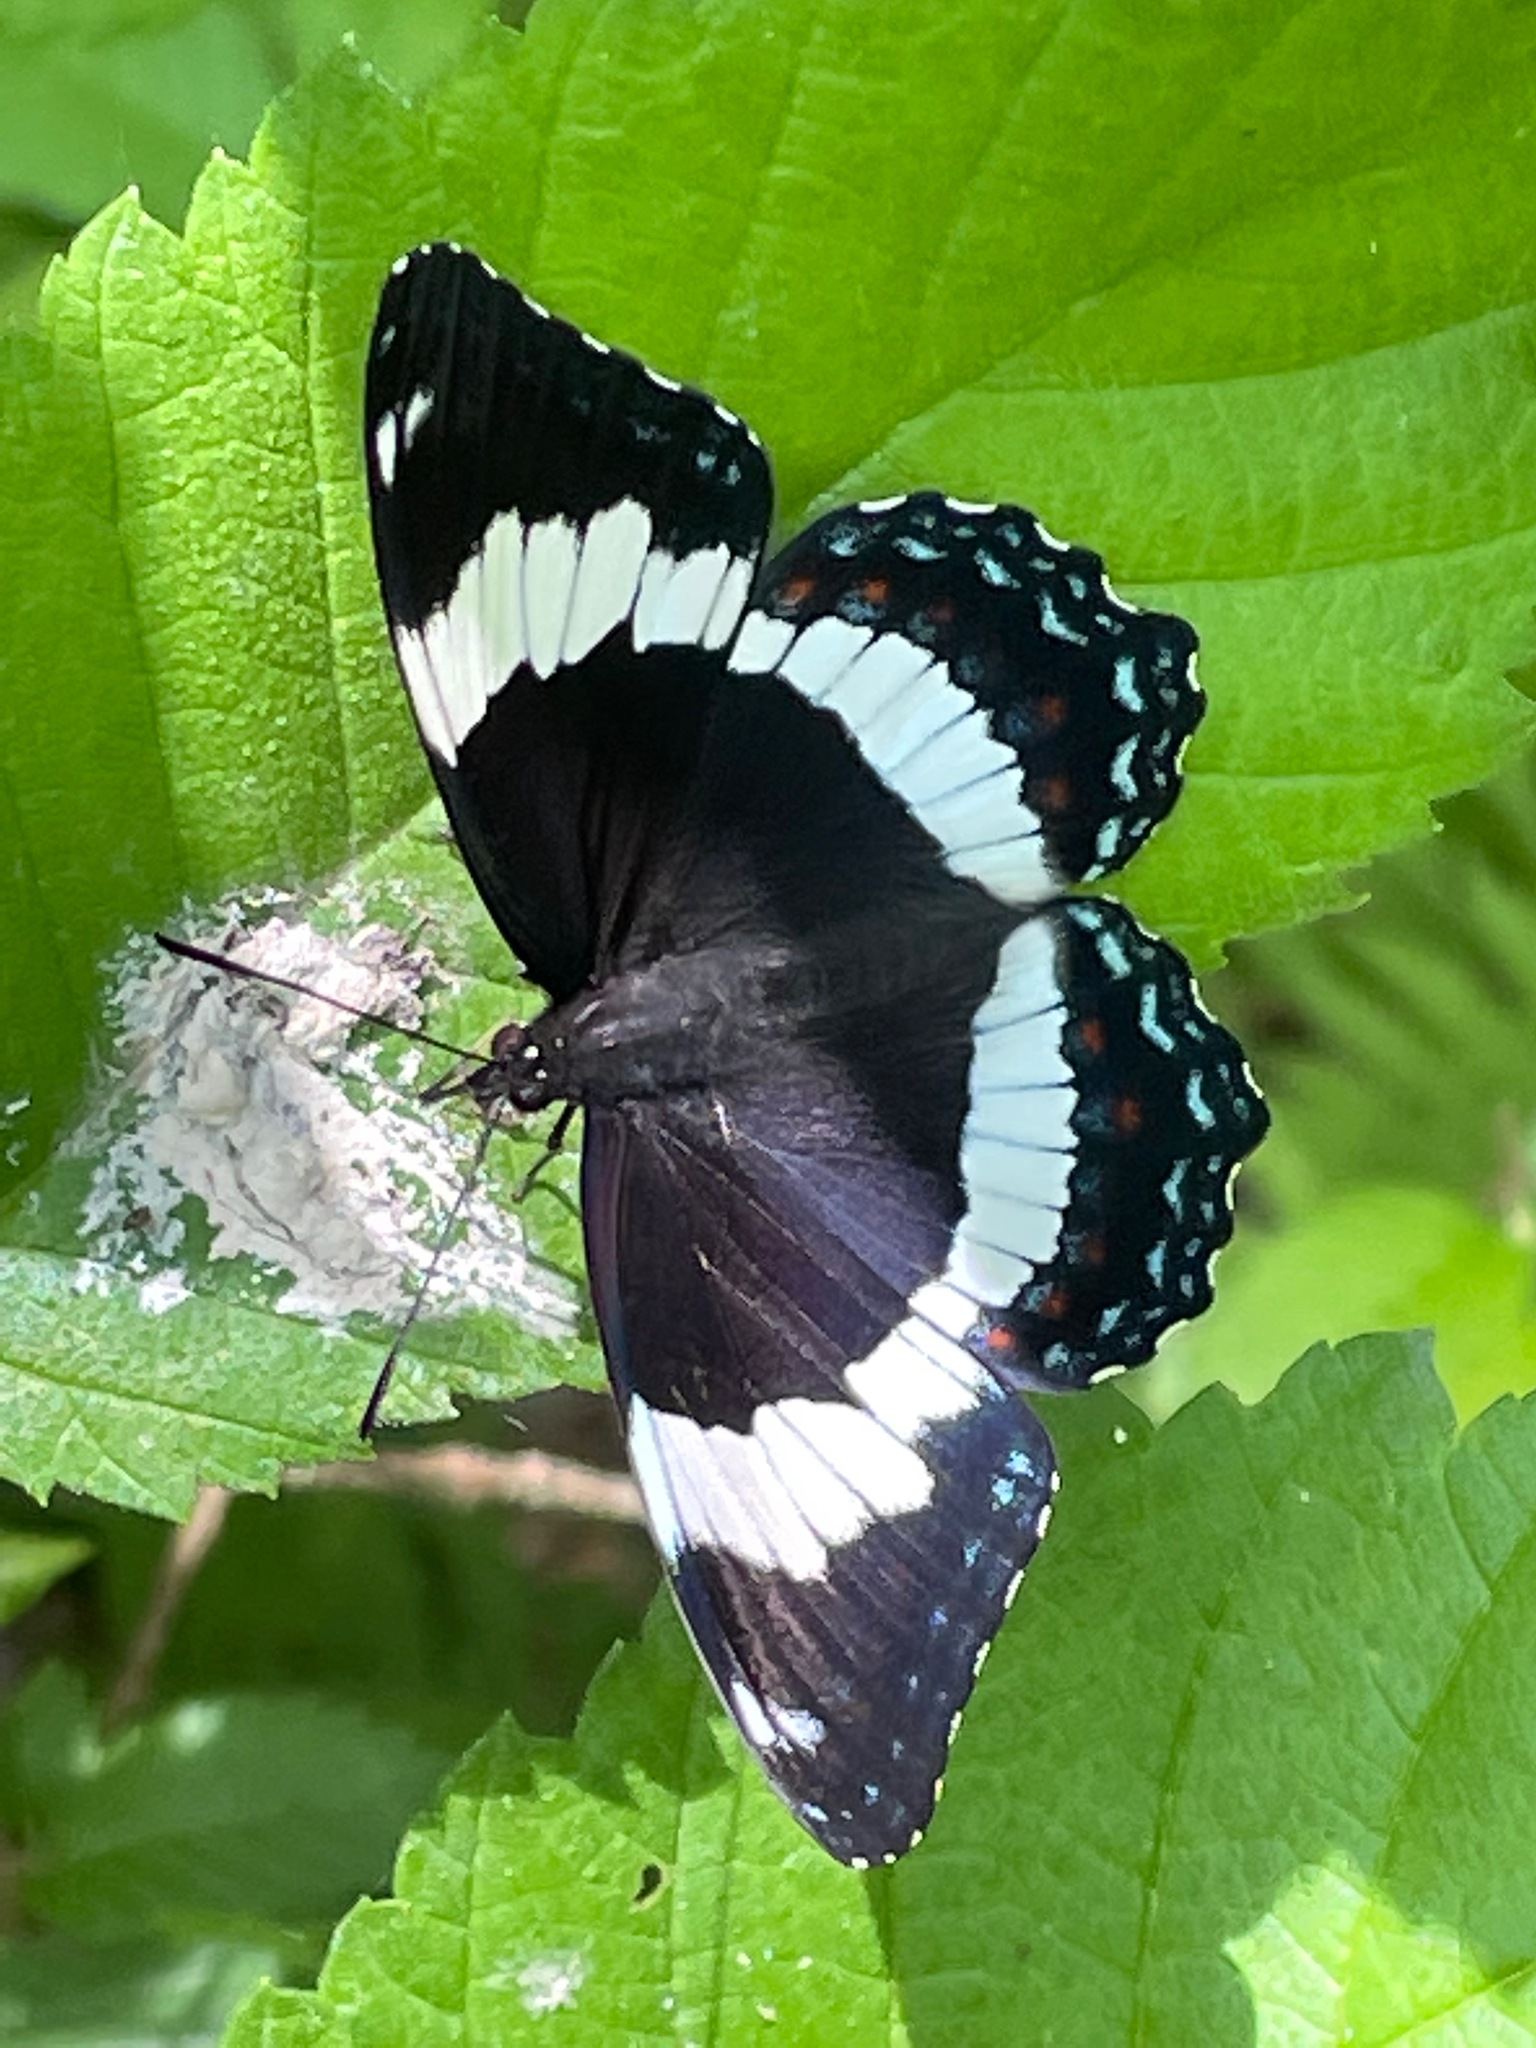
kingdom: Animalia
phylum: Arthropoda
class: Insecta
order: Lepidoptera
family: Nymphalidae
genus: Limenitis
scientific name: Limenitis arthemis
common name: Red-spotted admiral
